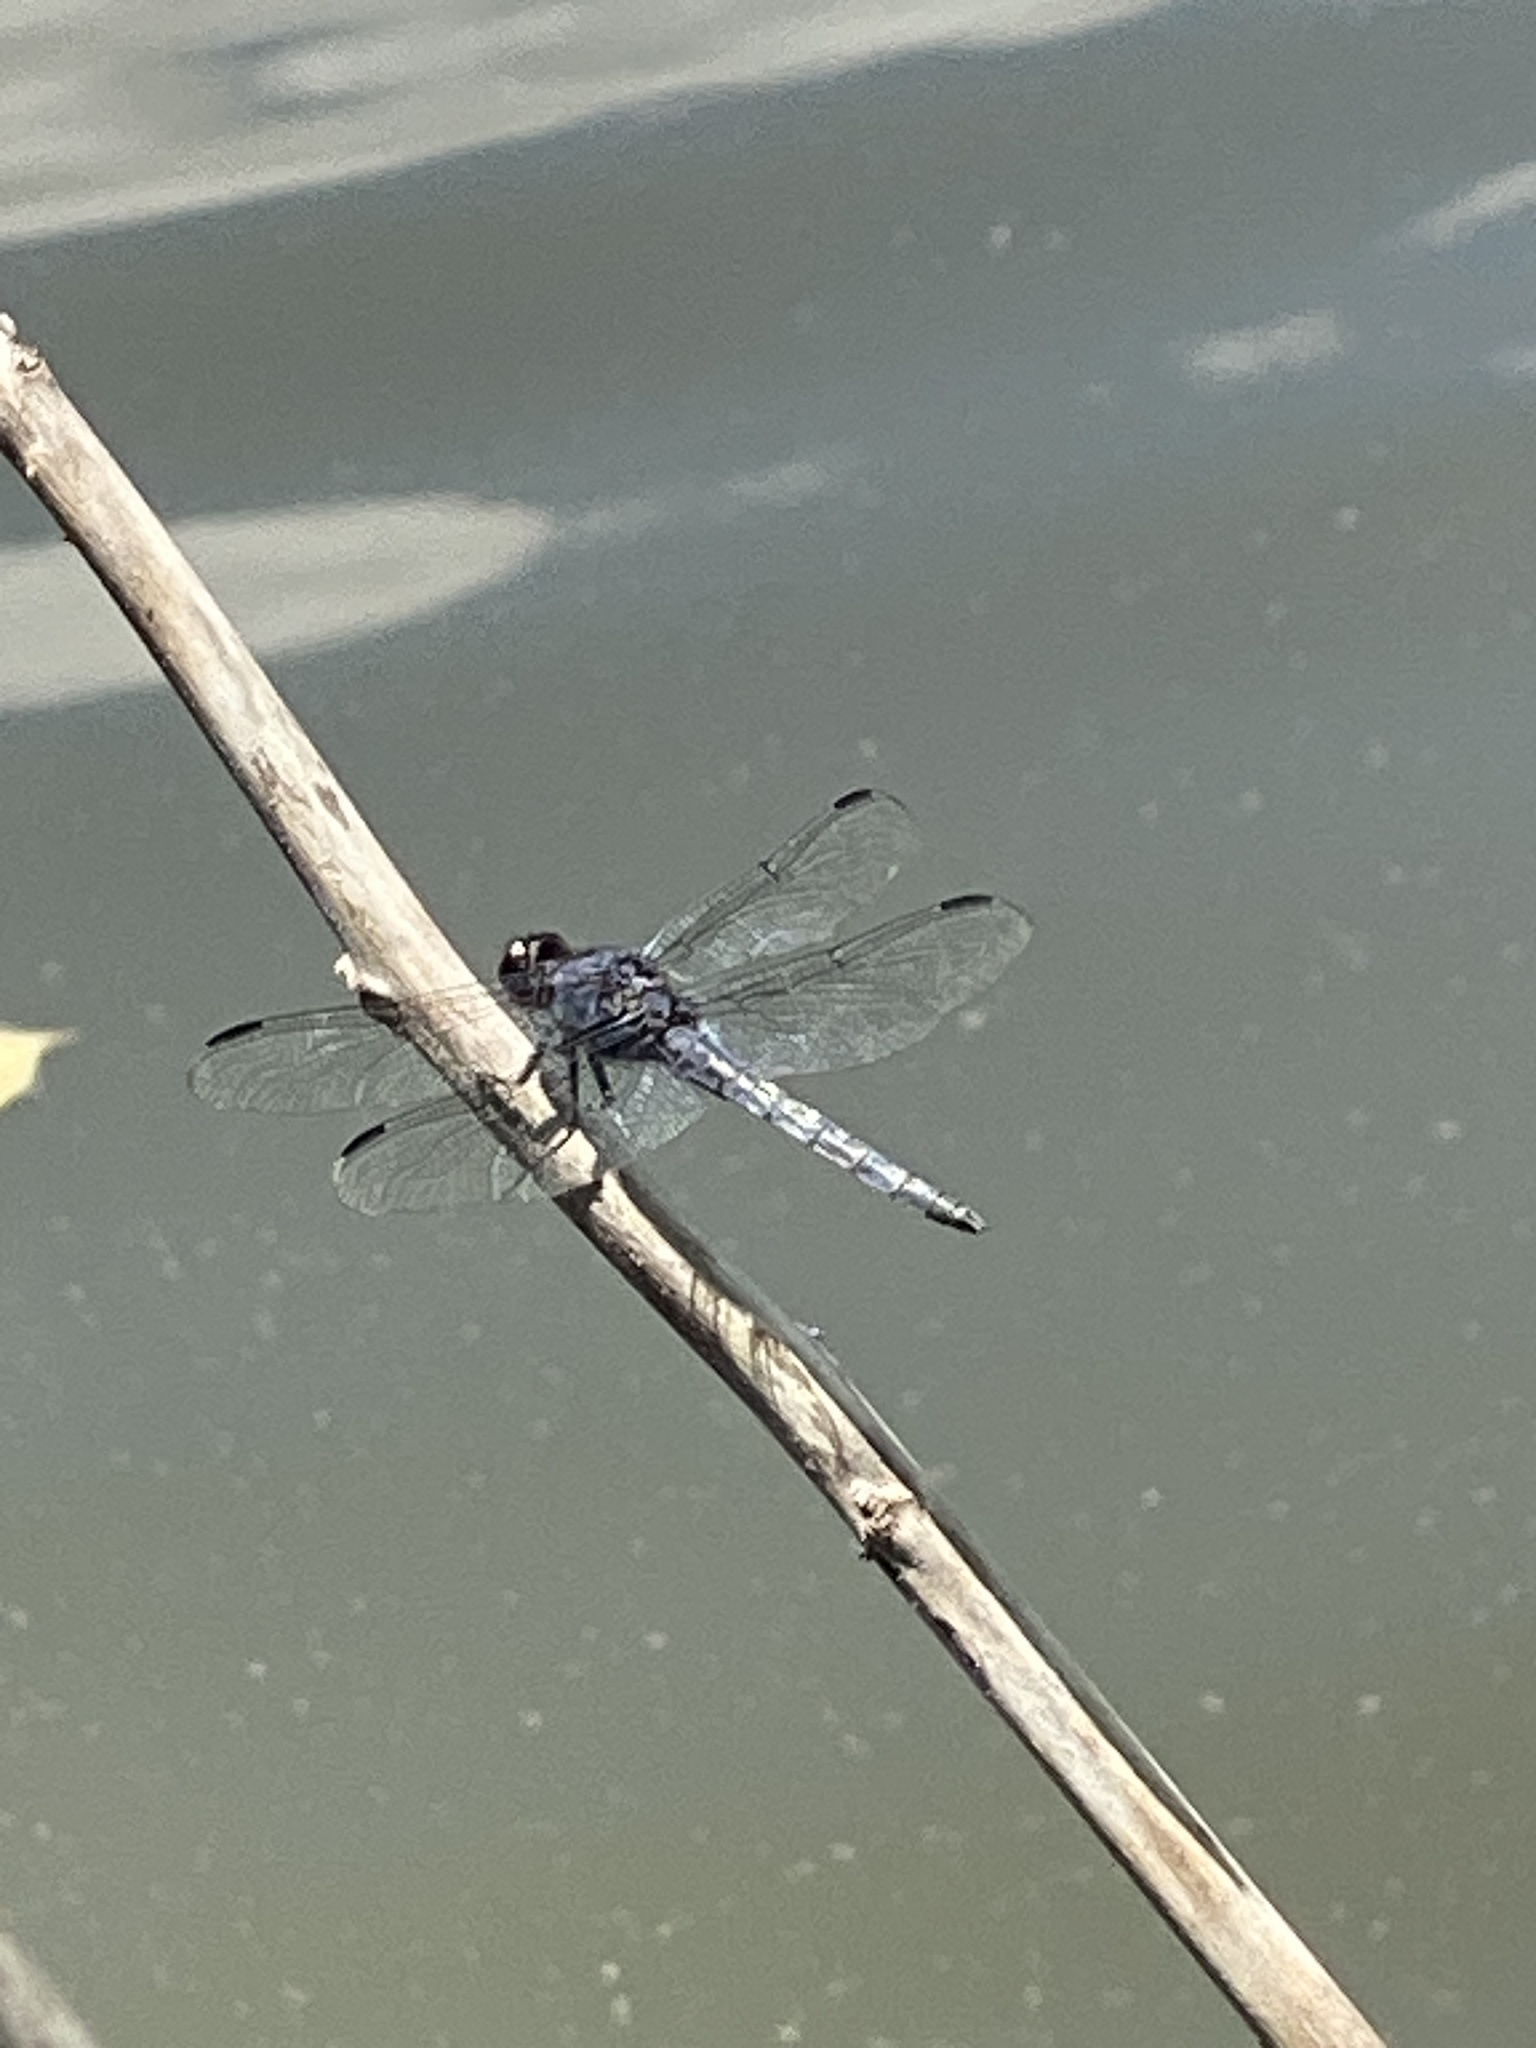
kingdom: Animalia
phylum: Arthropoda
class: Insecta
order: Odonata
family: Libellulidae
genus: Libellula
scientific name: Libellula incesta
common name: Slaty skimmer
